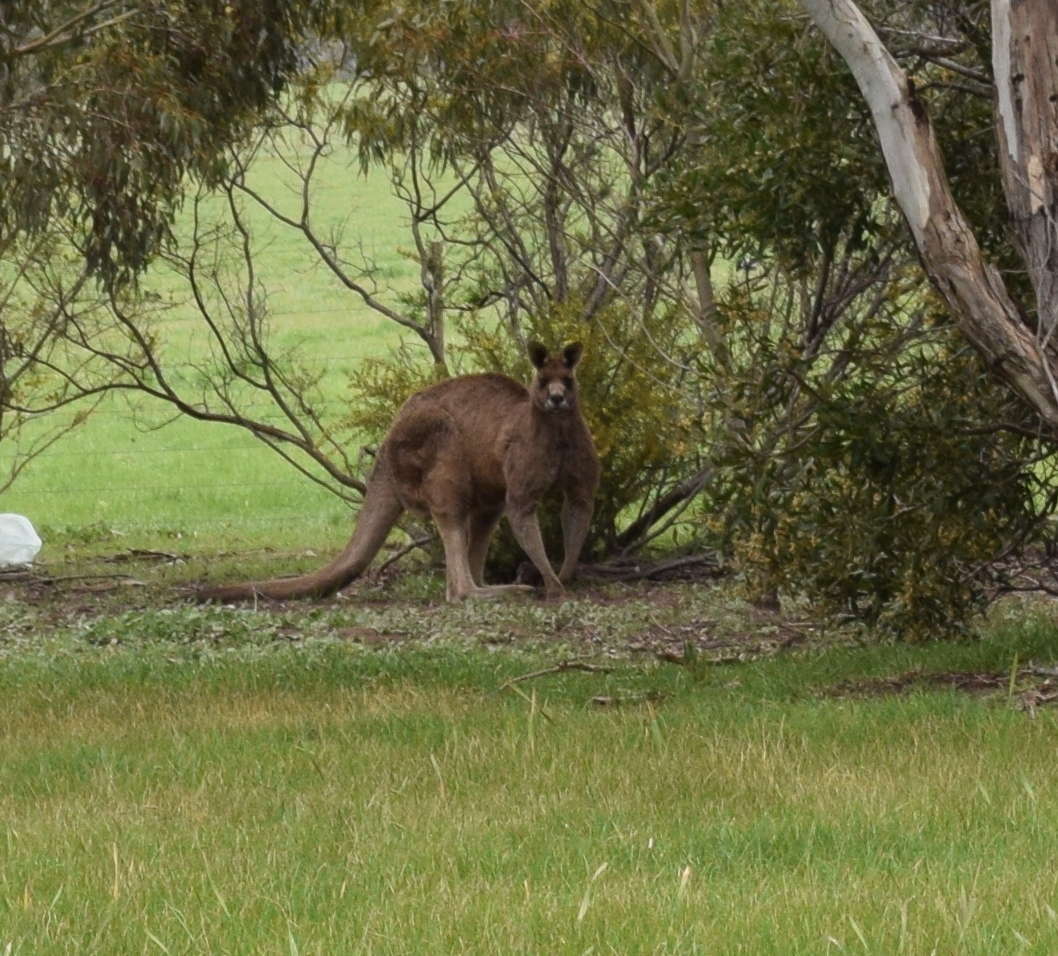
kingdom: Animalia
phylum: Chordata
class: Mammalia
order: Diprotodontia
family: Macropodidae
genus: Macropus
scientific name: Macropus giganteus
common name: Eastern grey kangaroo
